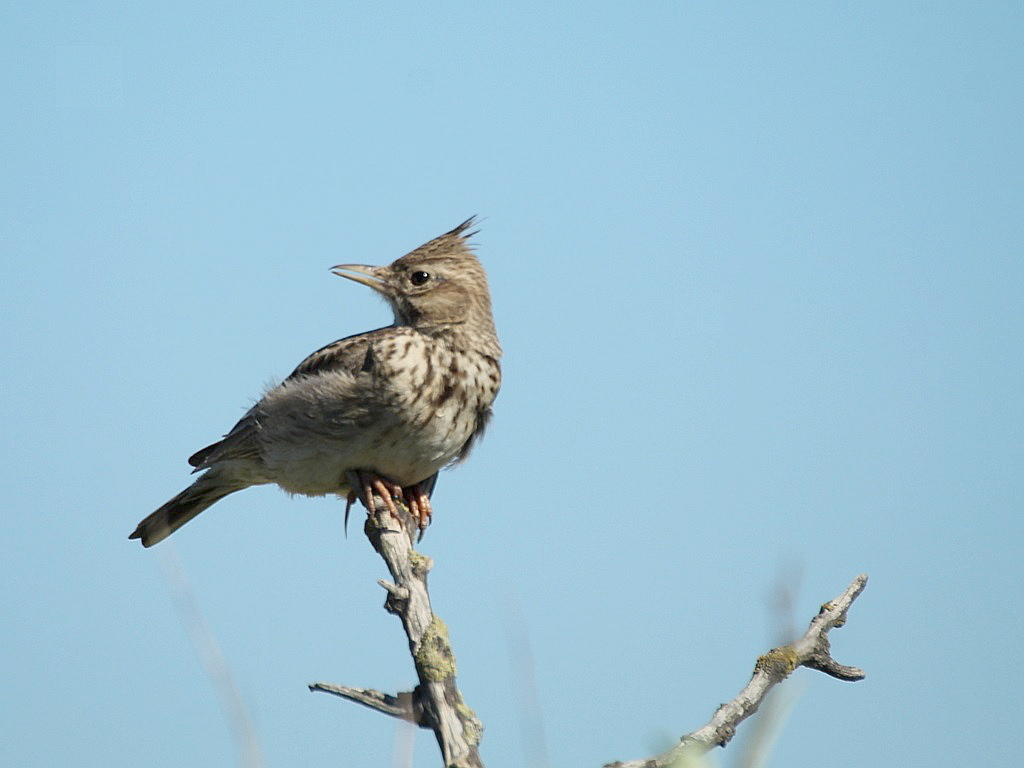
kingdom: Animalia
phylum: Chordata
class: Aves
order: Passeriformes
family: Alaudidae
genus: Galerida
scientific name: Galerida cristata
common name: Crested lark
